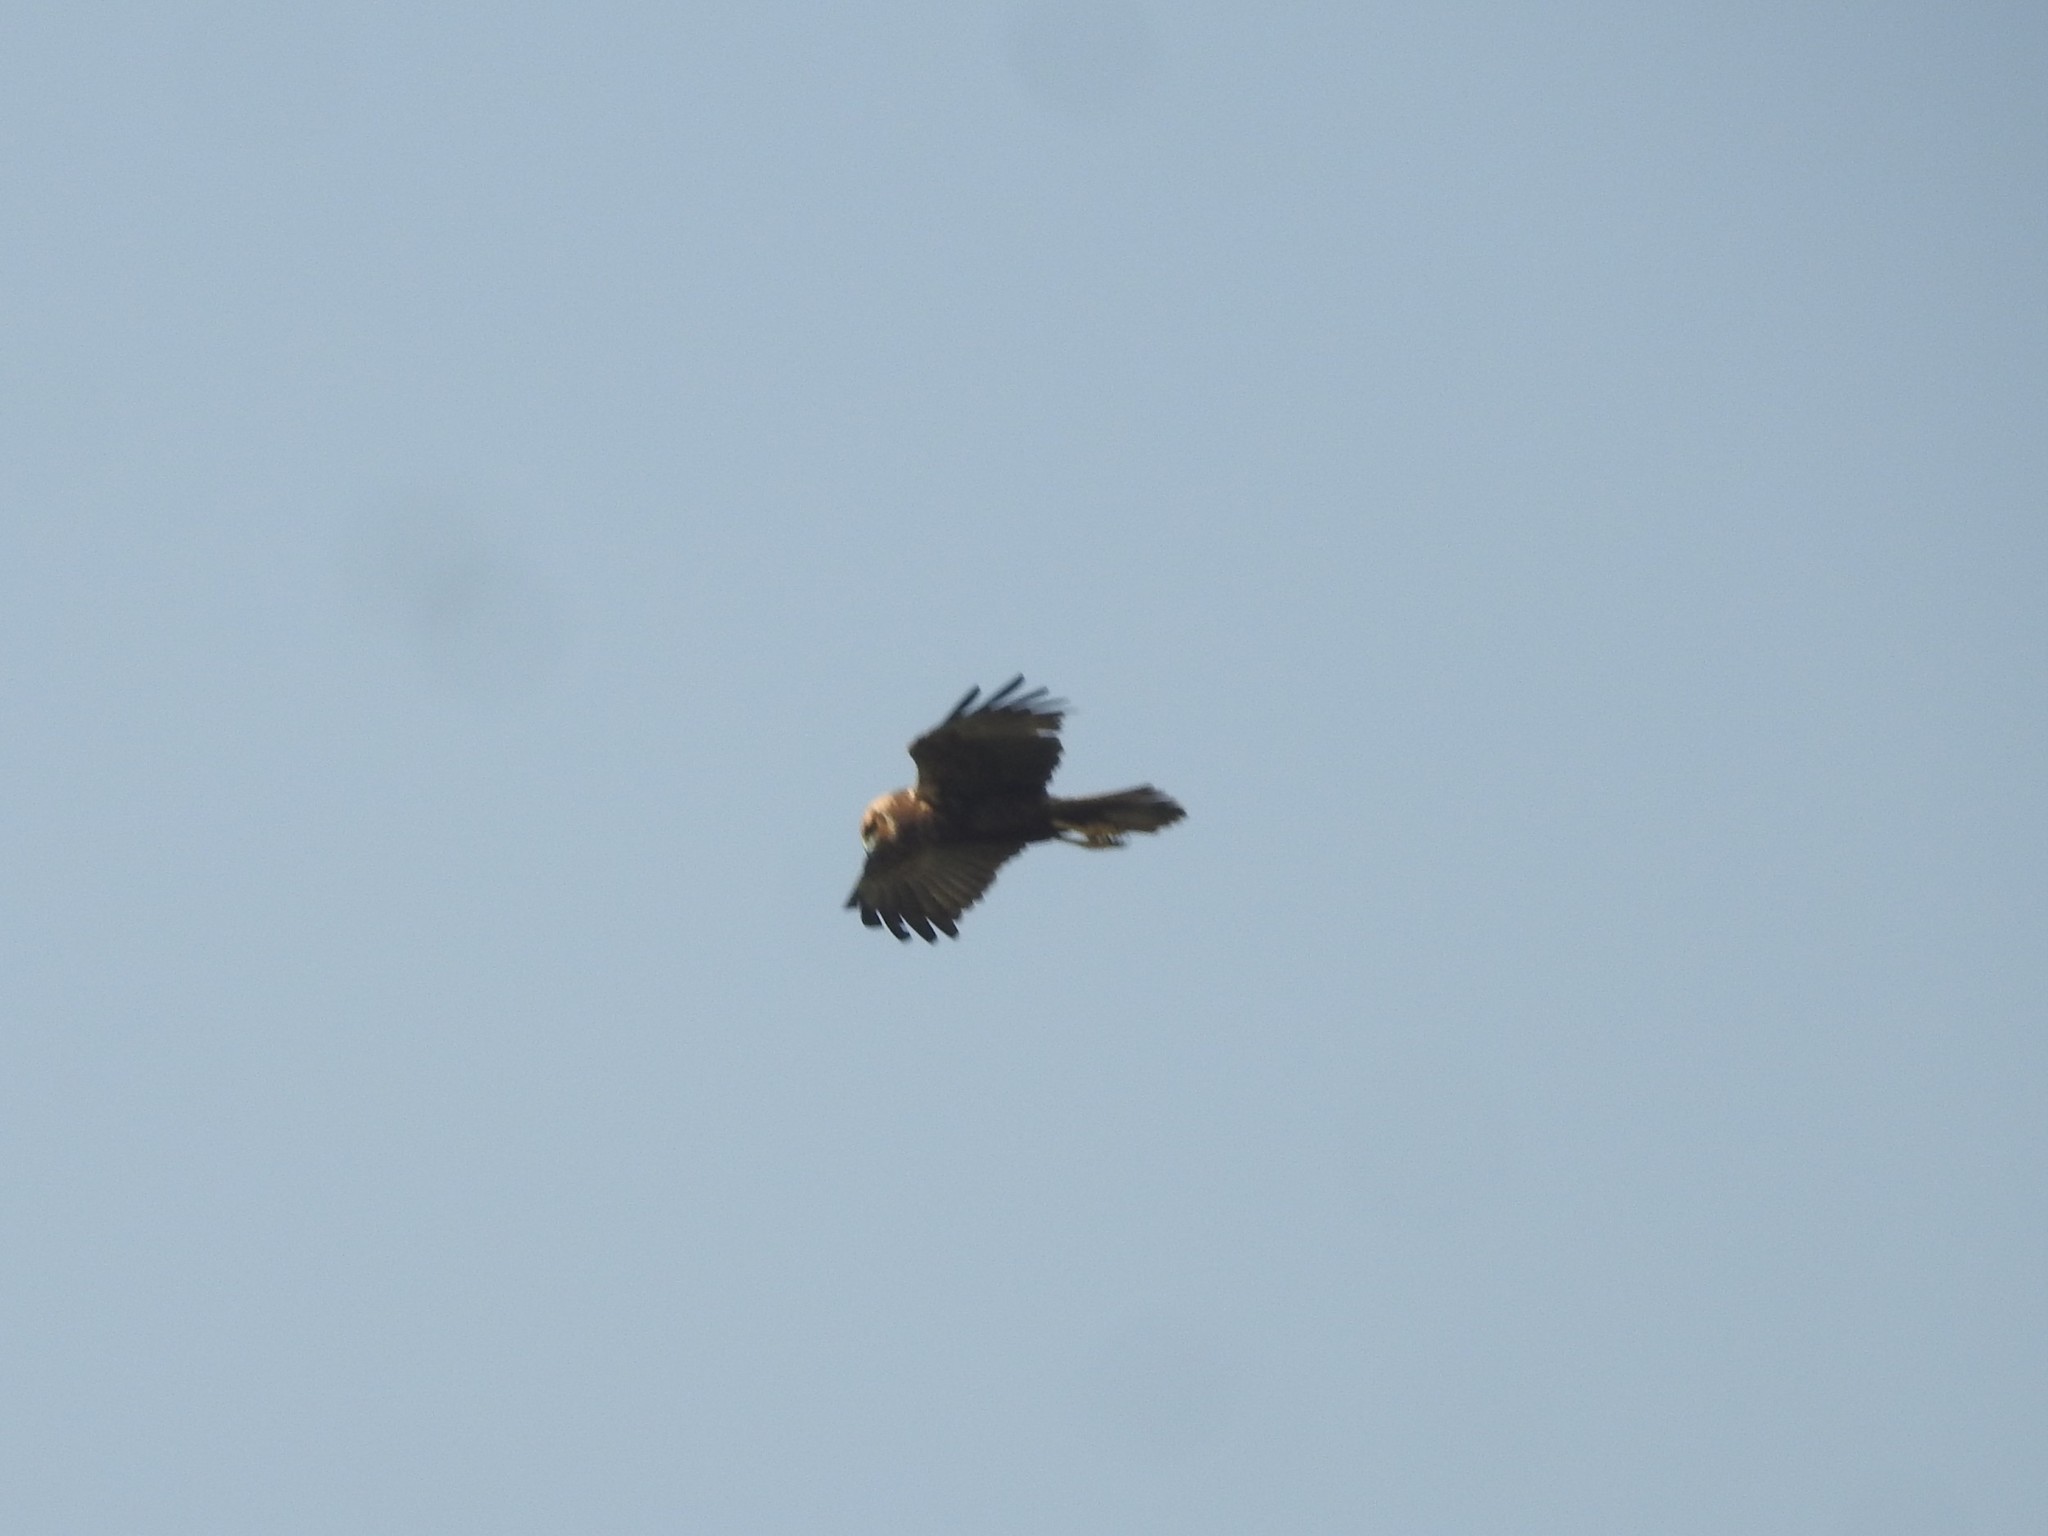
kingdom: Animalia
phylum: Chordata
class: Aves
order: Accipitriformes
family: Accipitridae
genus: Circus
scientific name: Circus aeruginosus
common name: Western marsh harrier
